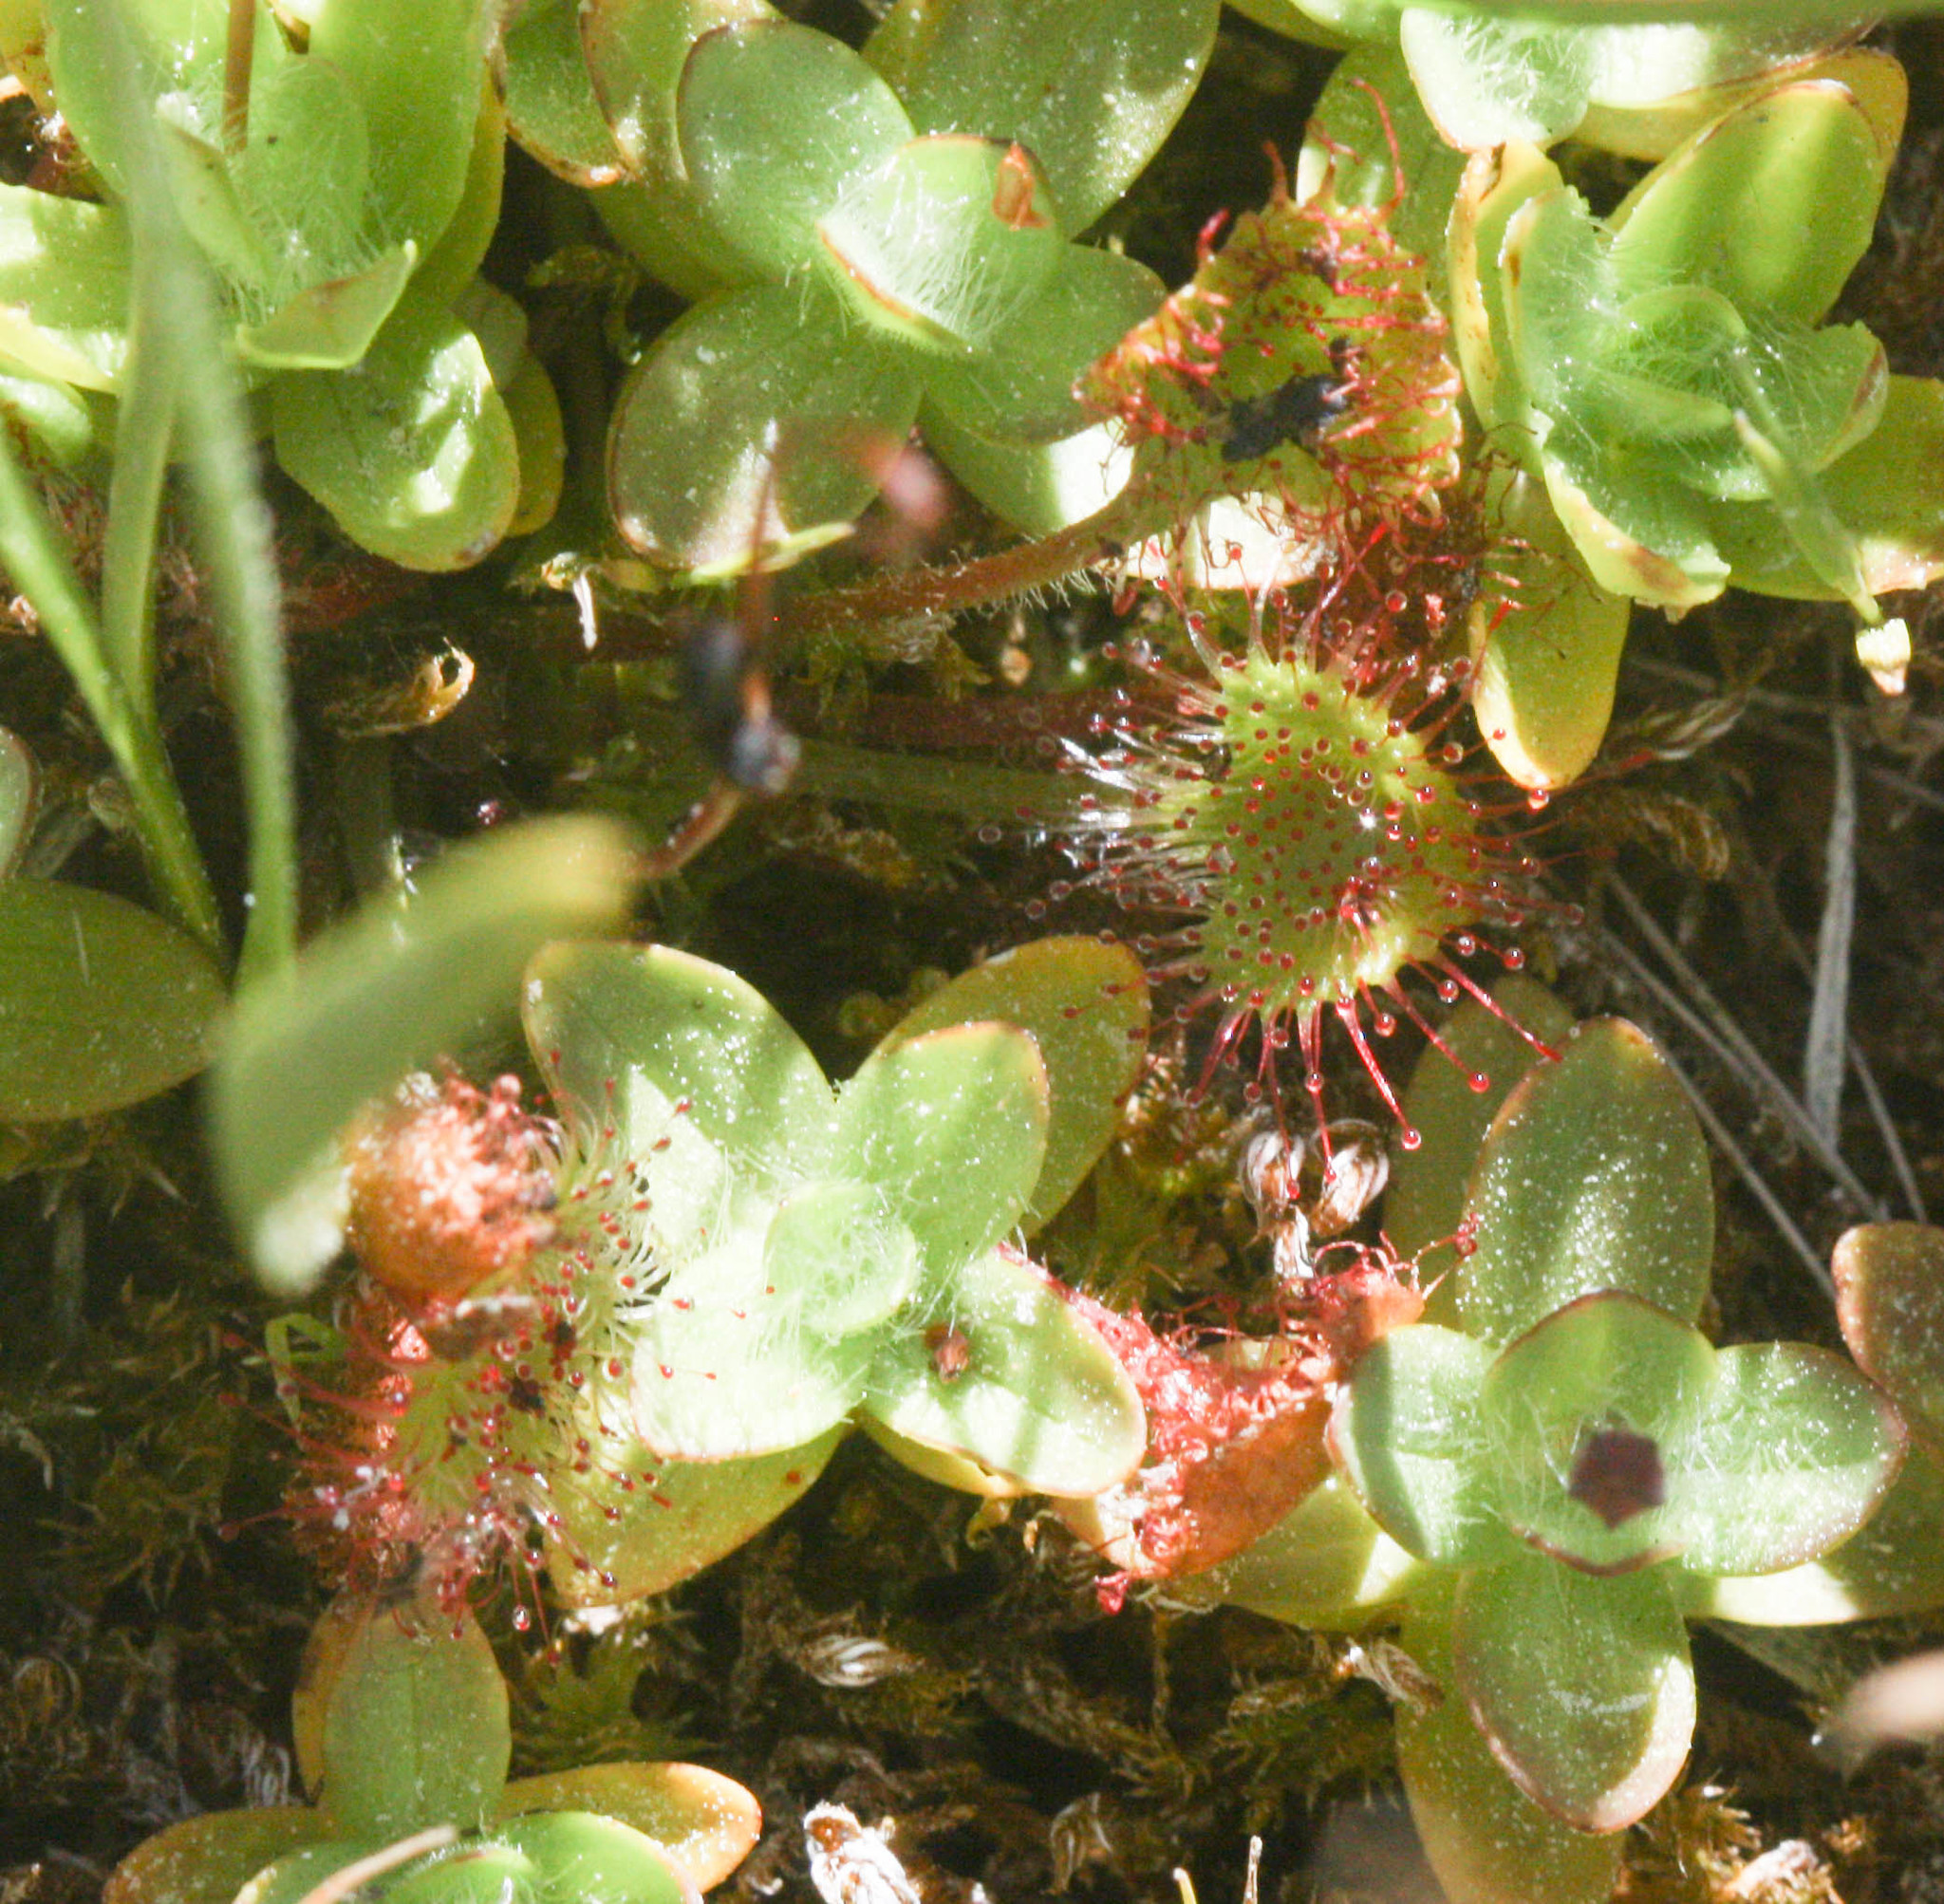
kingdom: Plantae
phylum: Tracheophyta
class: Magnoliopsida
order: Caryophyllales
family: Droseraceae
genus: Drosera
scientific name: Drosera rotundifolia
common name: Round-leaved sundew
